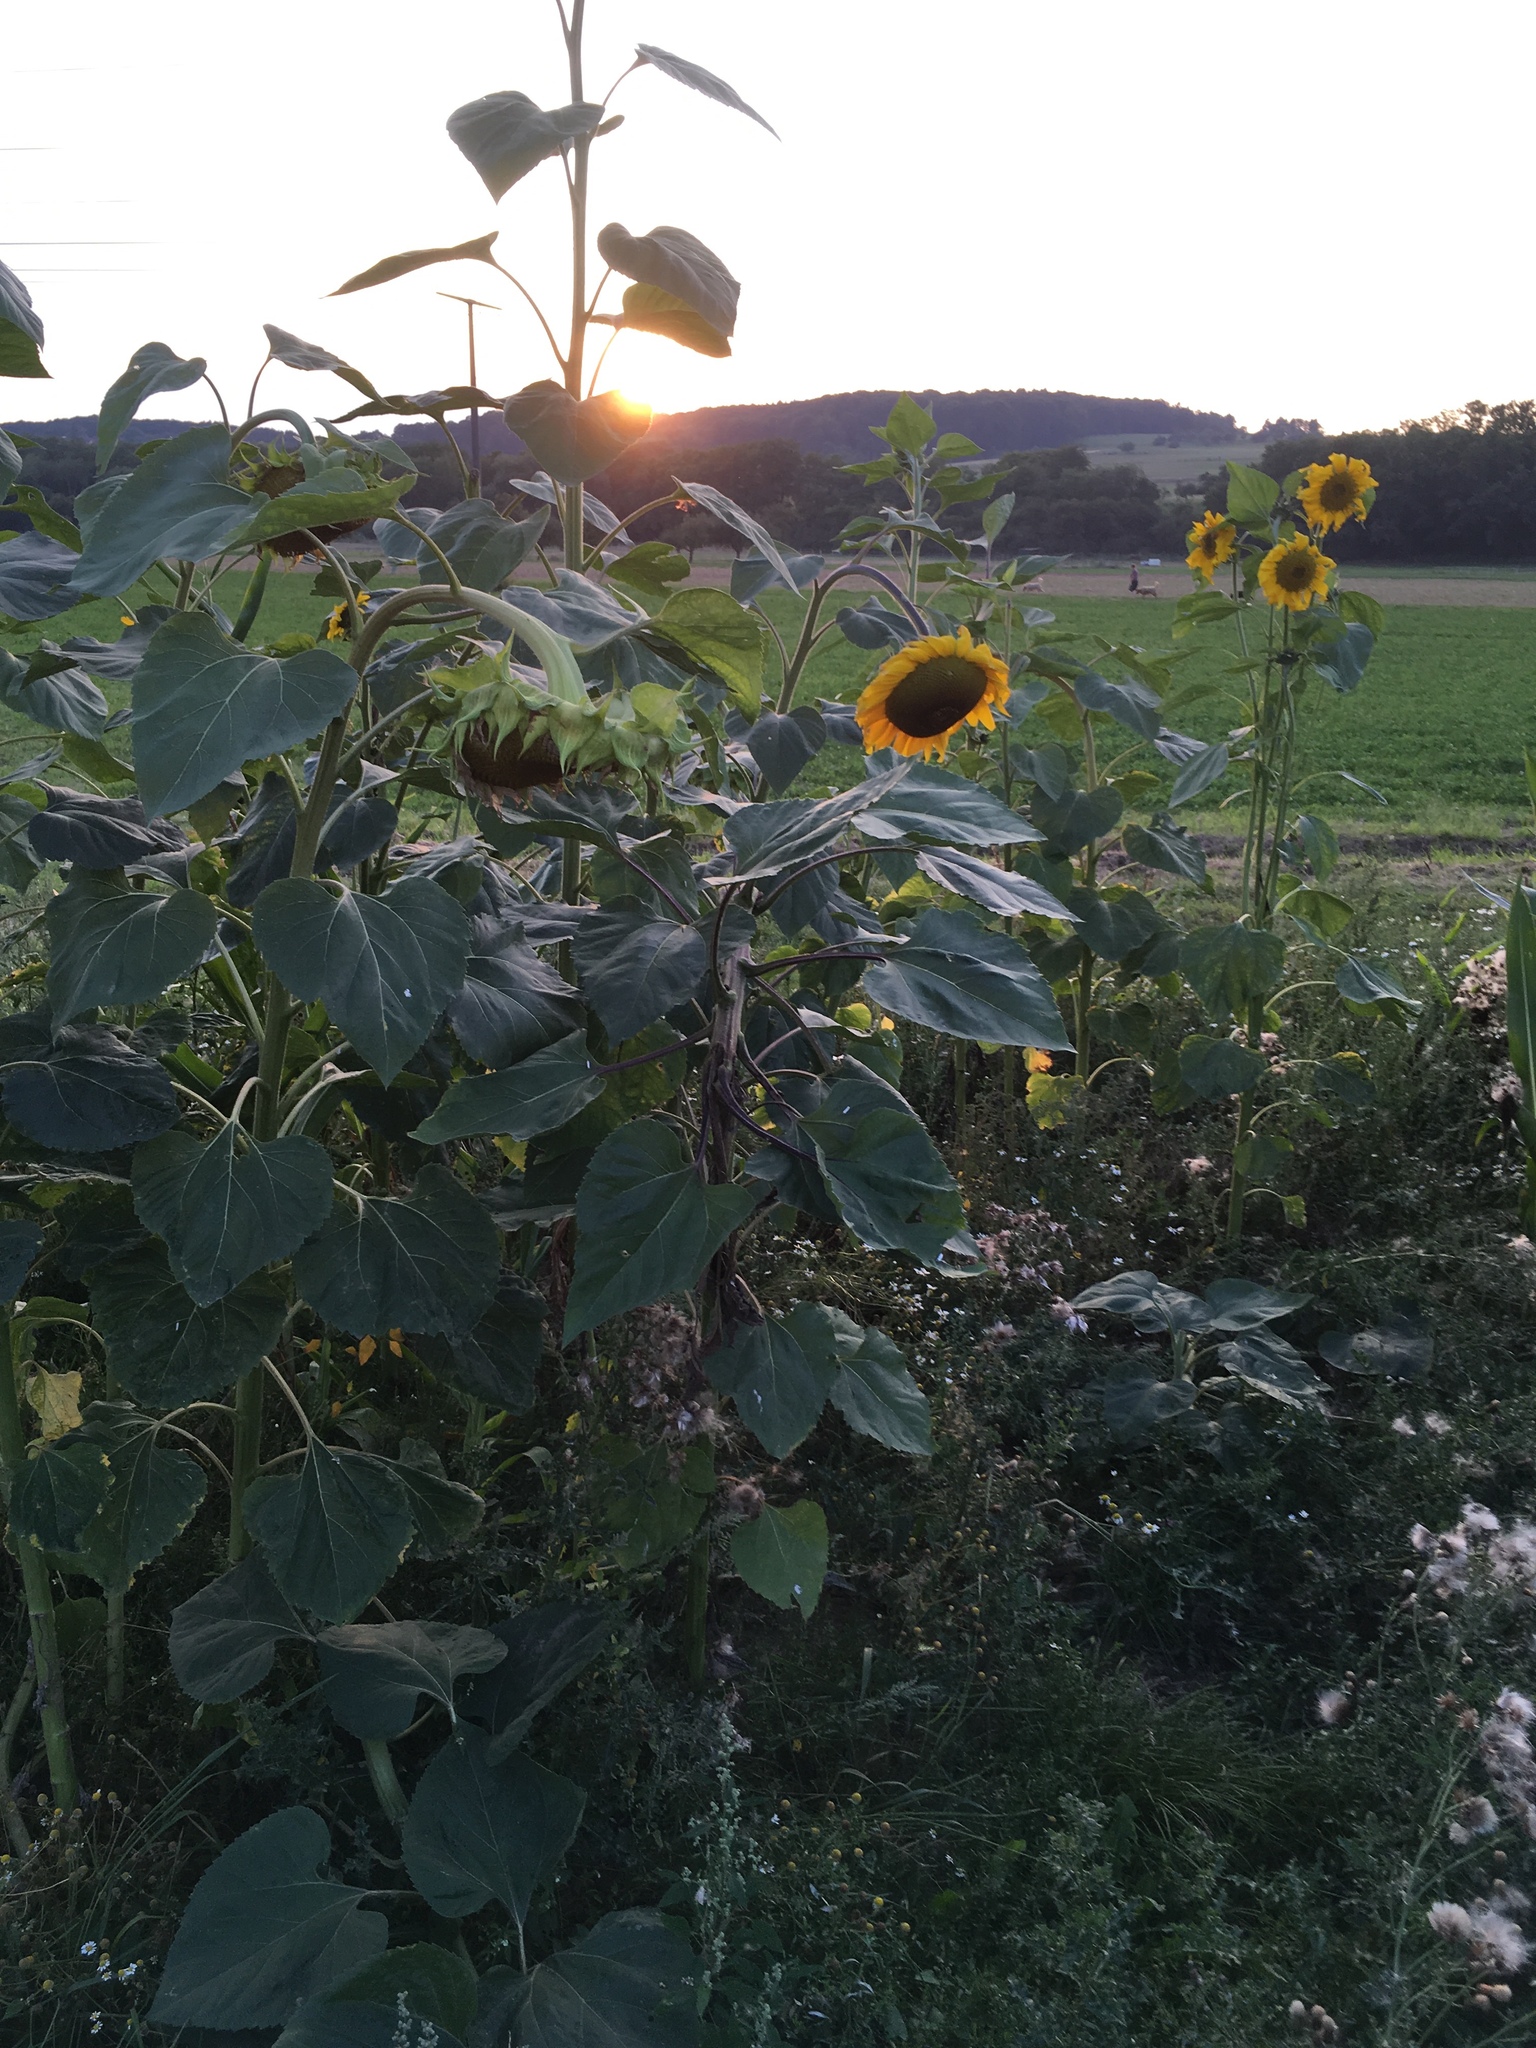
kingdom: Plantae
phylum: Tracheophyta
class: Magnoliopsida
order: Asterales
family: Asteraceae
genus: Helianthus
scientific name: Helianthus annuus
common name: Sunflower
